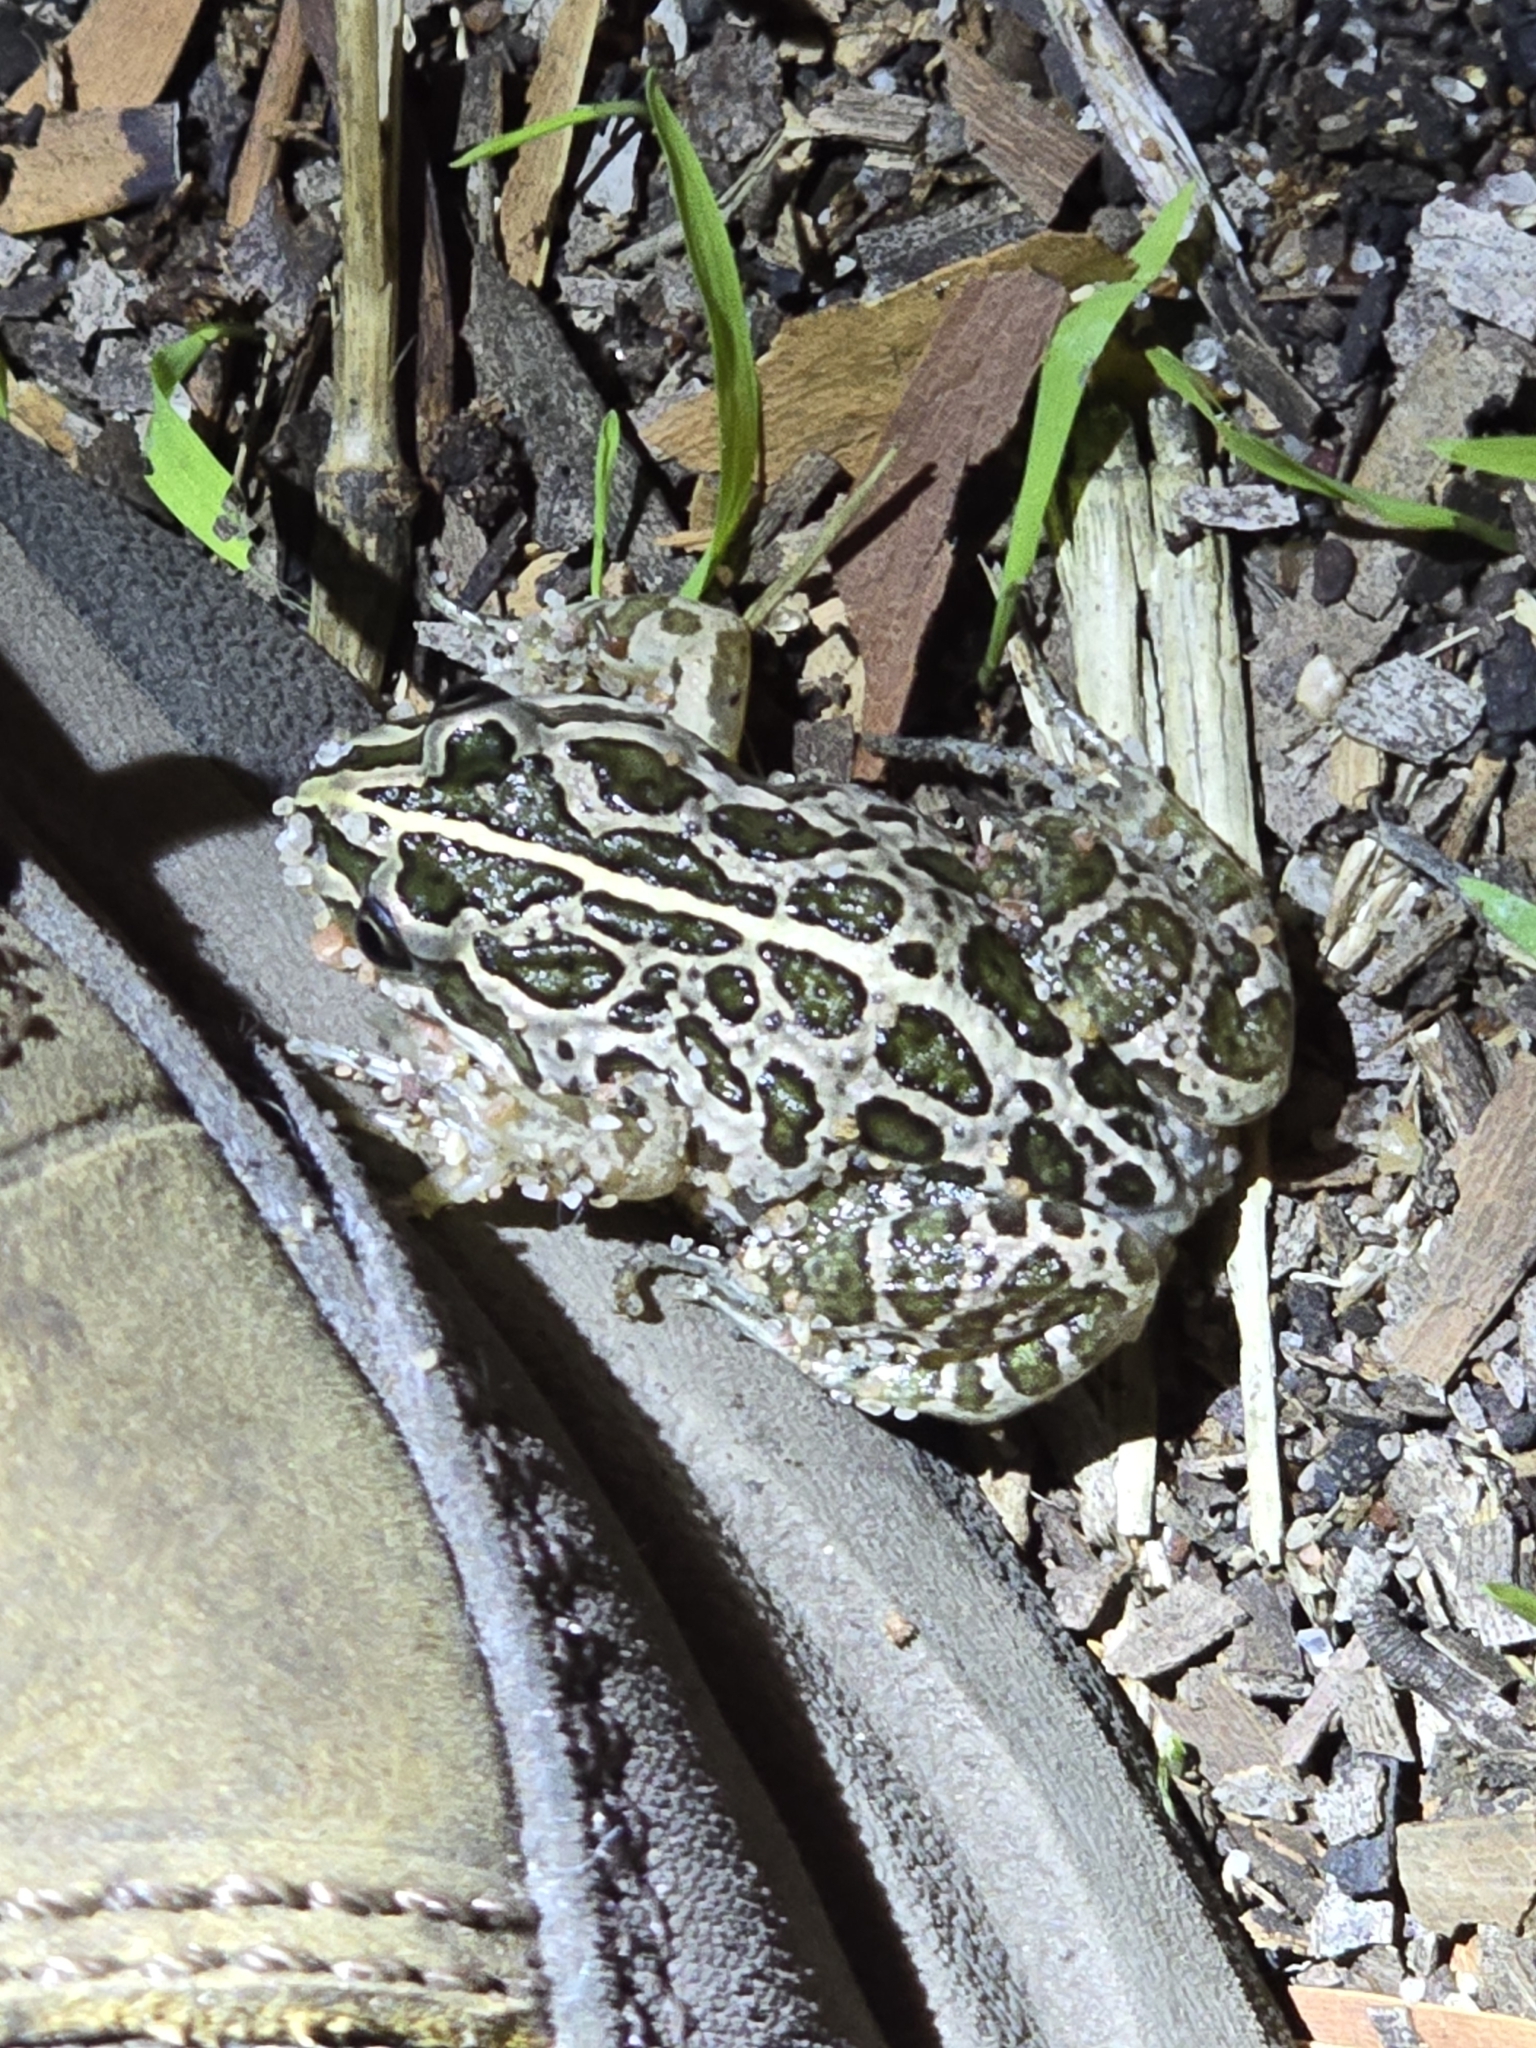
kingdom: Animalia
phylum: Chordata
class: Amphibia
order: Anura
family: Limnodynastidae
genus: Limnodynastes
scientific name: Limnodynastes tasmaniensis
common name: Spotted marsh frog
